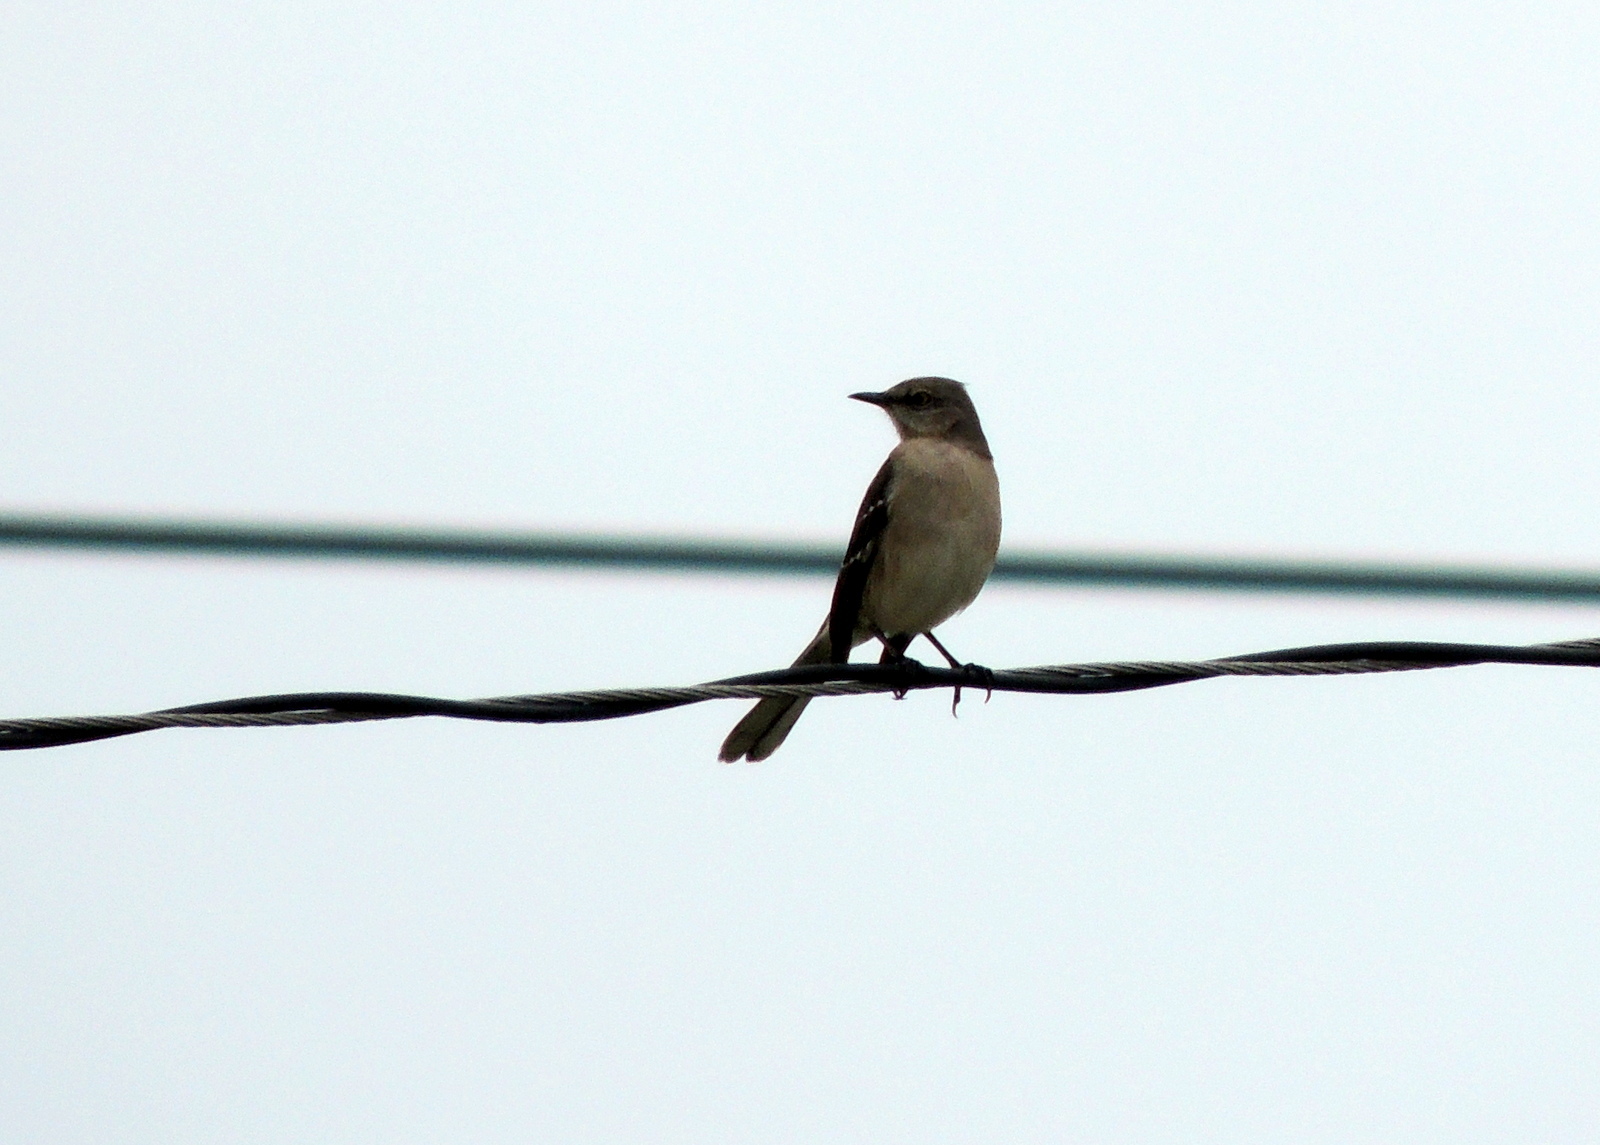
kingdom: Animalia
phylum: Chordata
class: Aves
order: Passeriformes
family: Mimidae
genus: Mimus
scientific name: Mimus polyglottos
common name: Northern mockingbird
